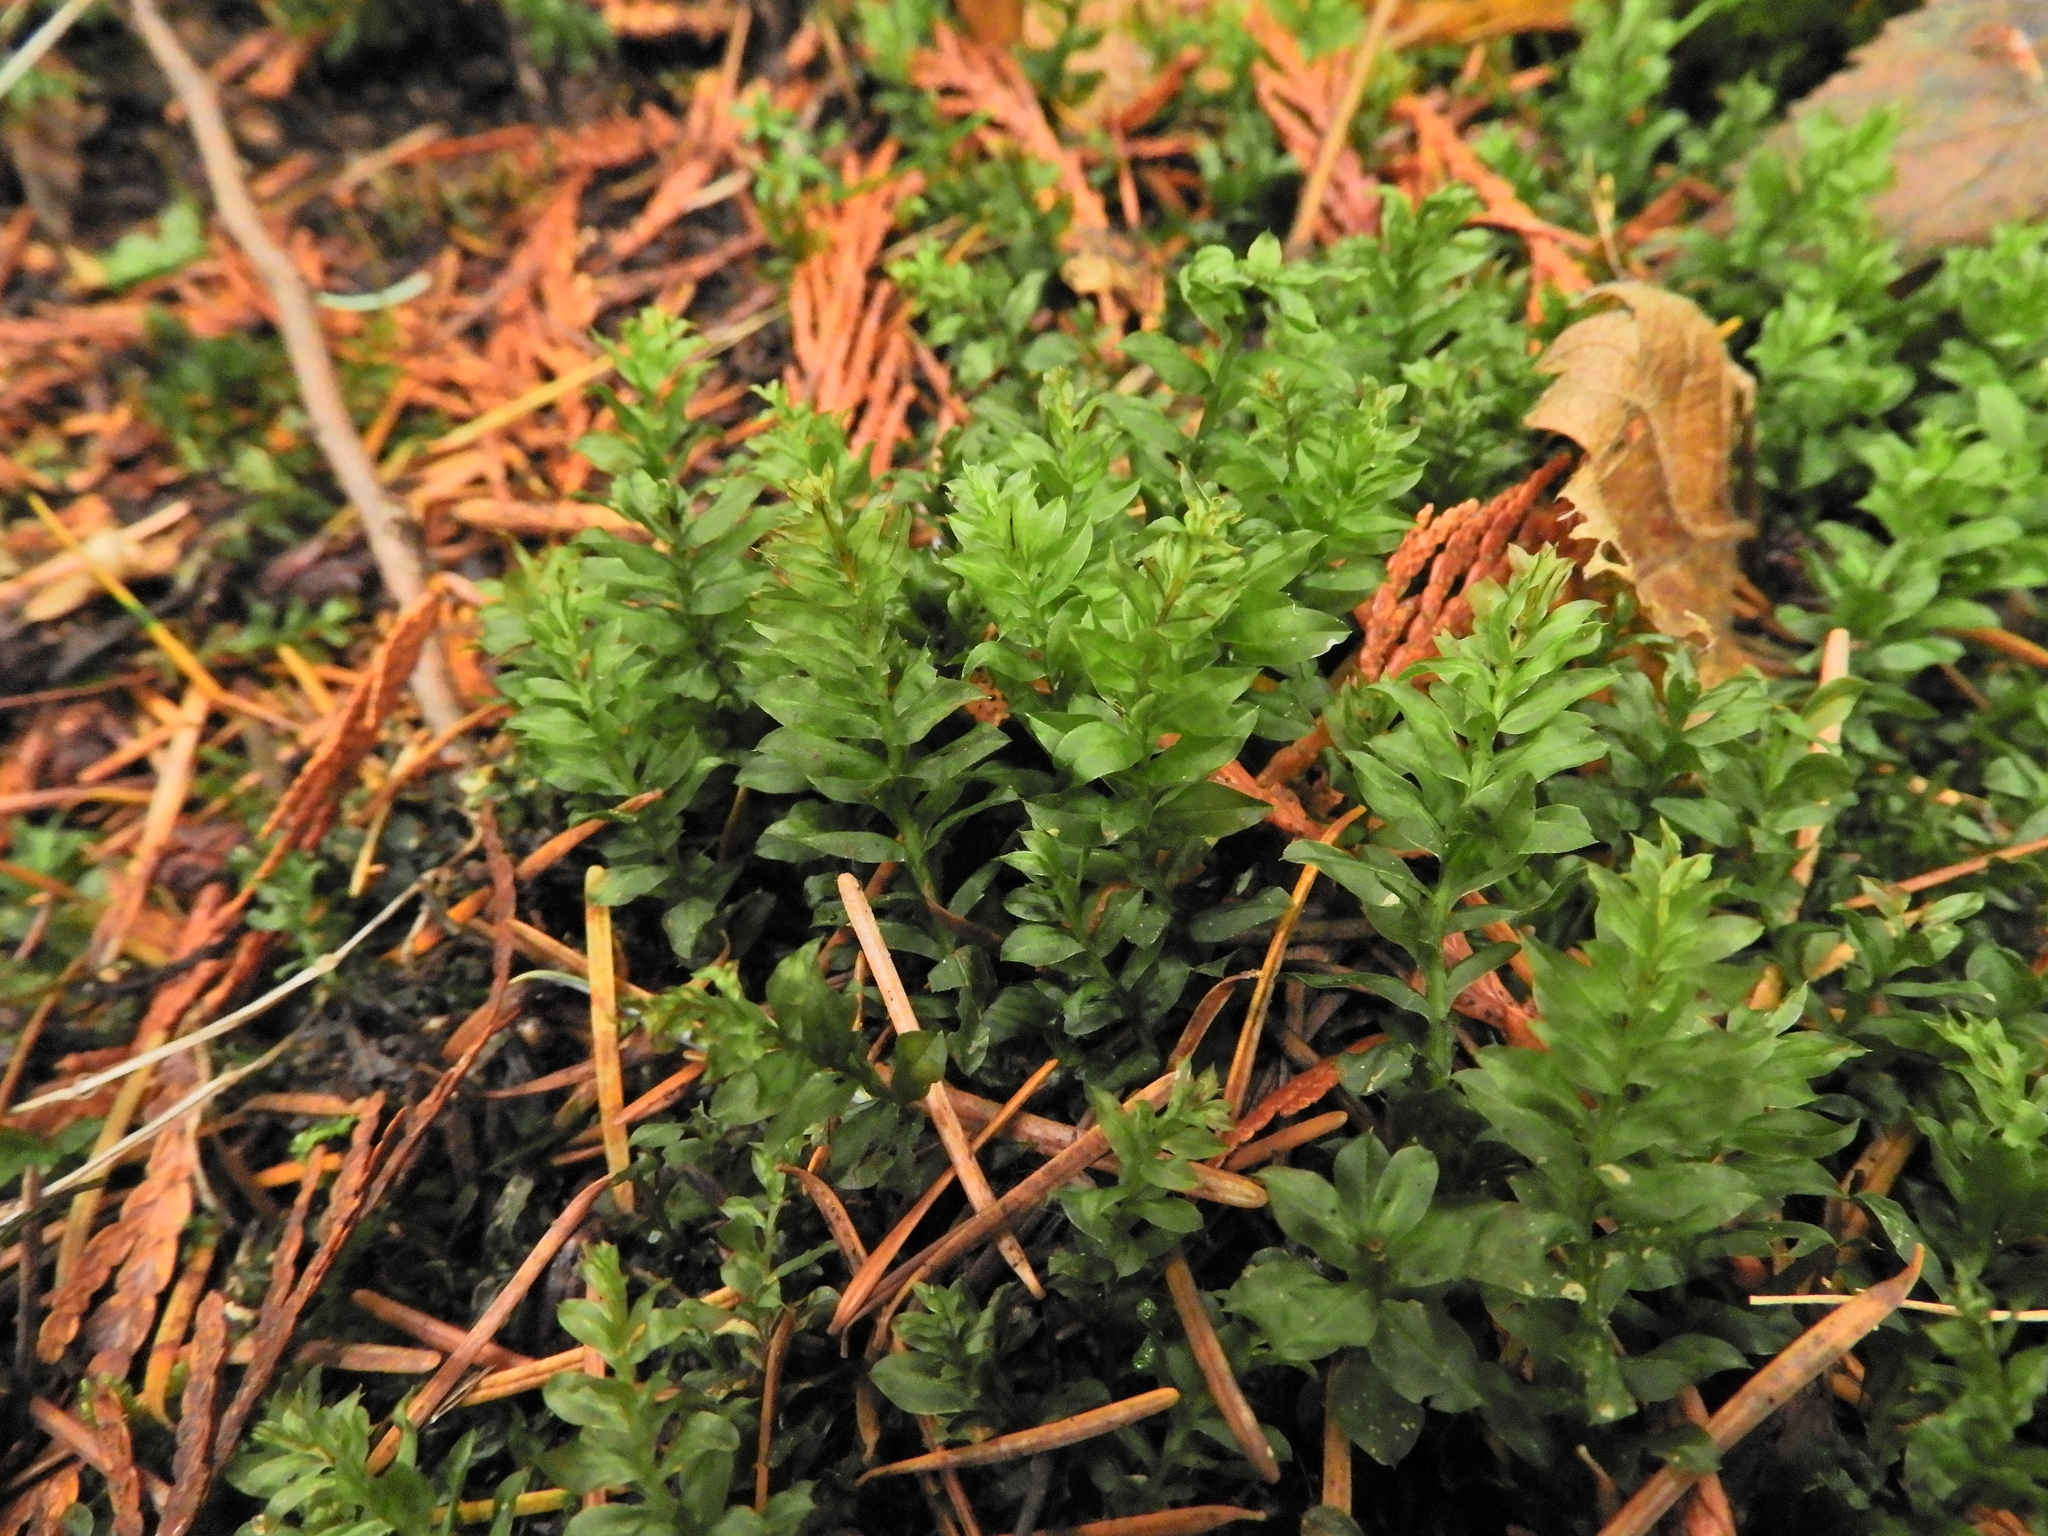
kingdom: Plantae
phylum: Bryophyta
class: Bryopsida
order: Bryales
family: Mniaceae
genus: Plagiomnium
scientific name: Plagiomnium insigne
